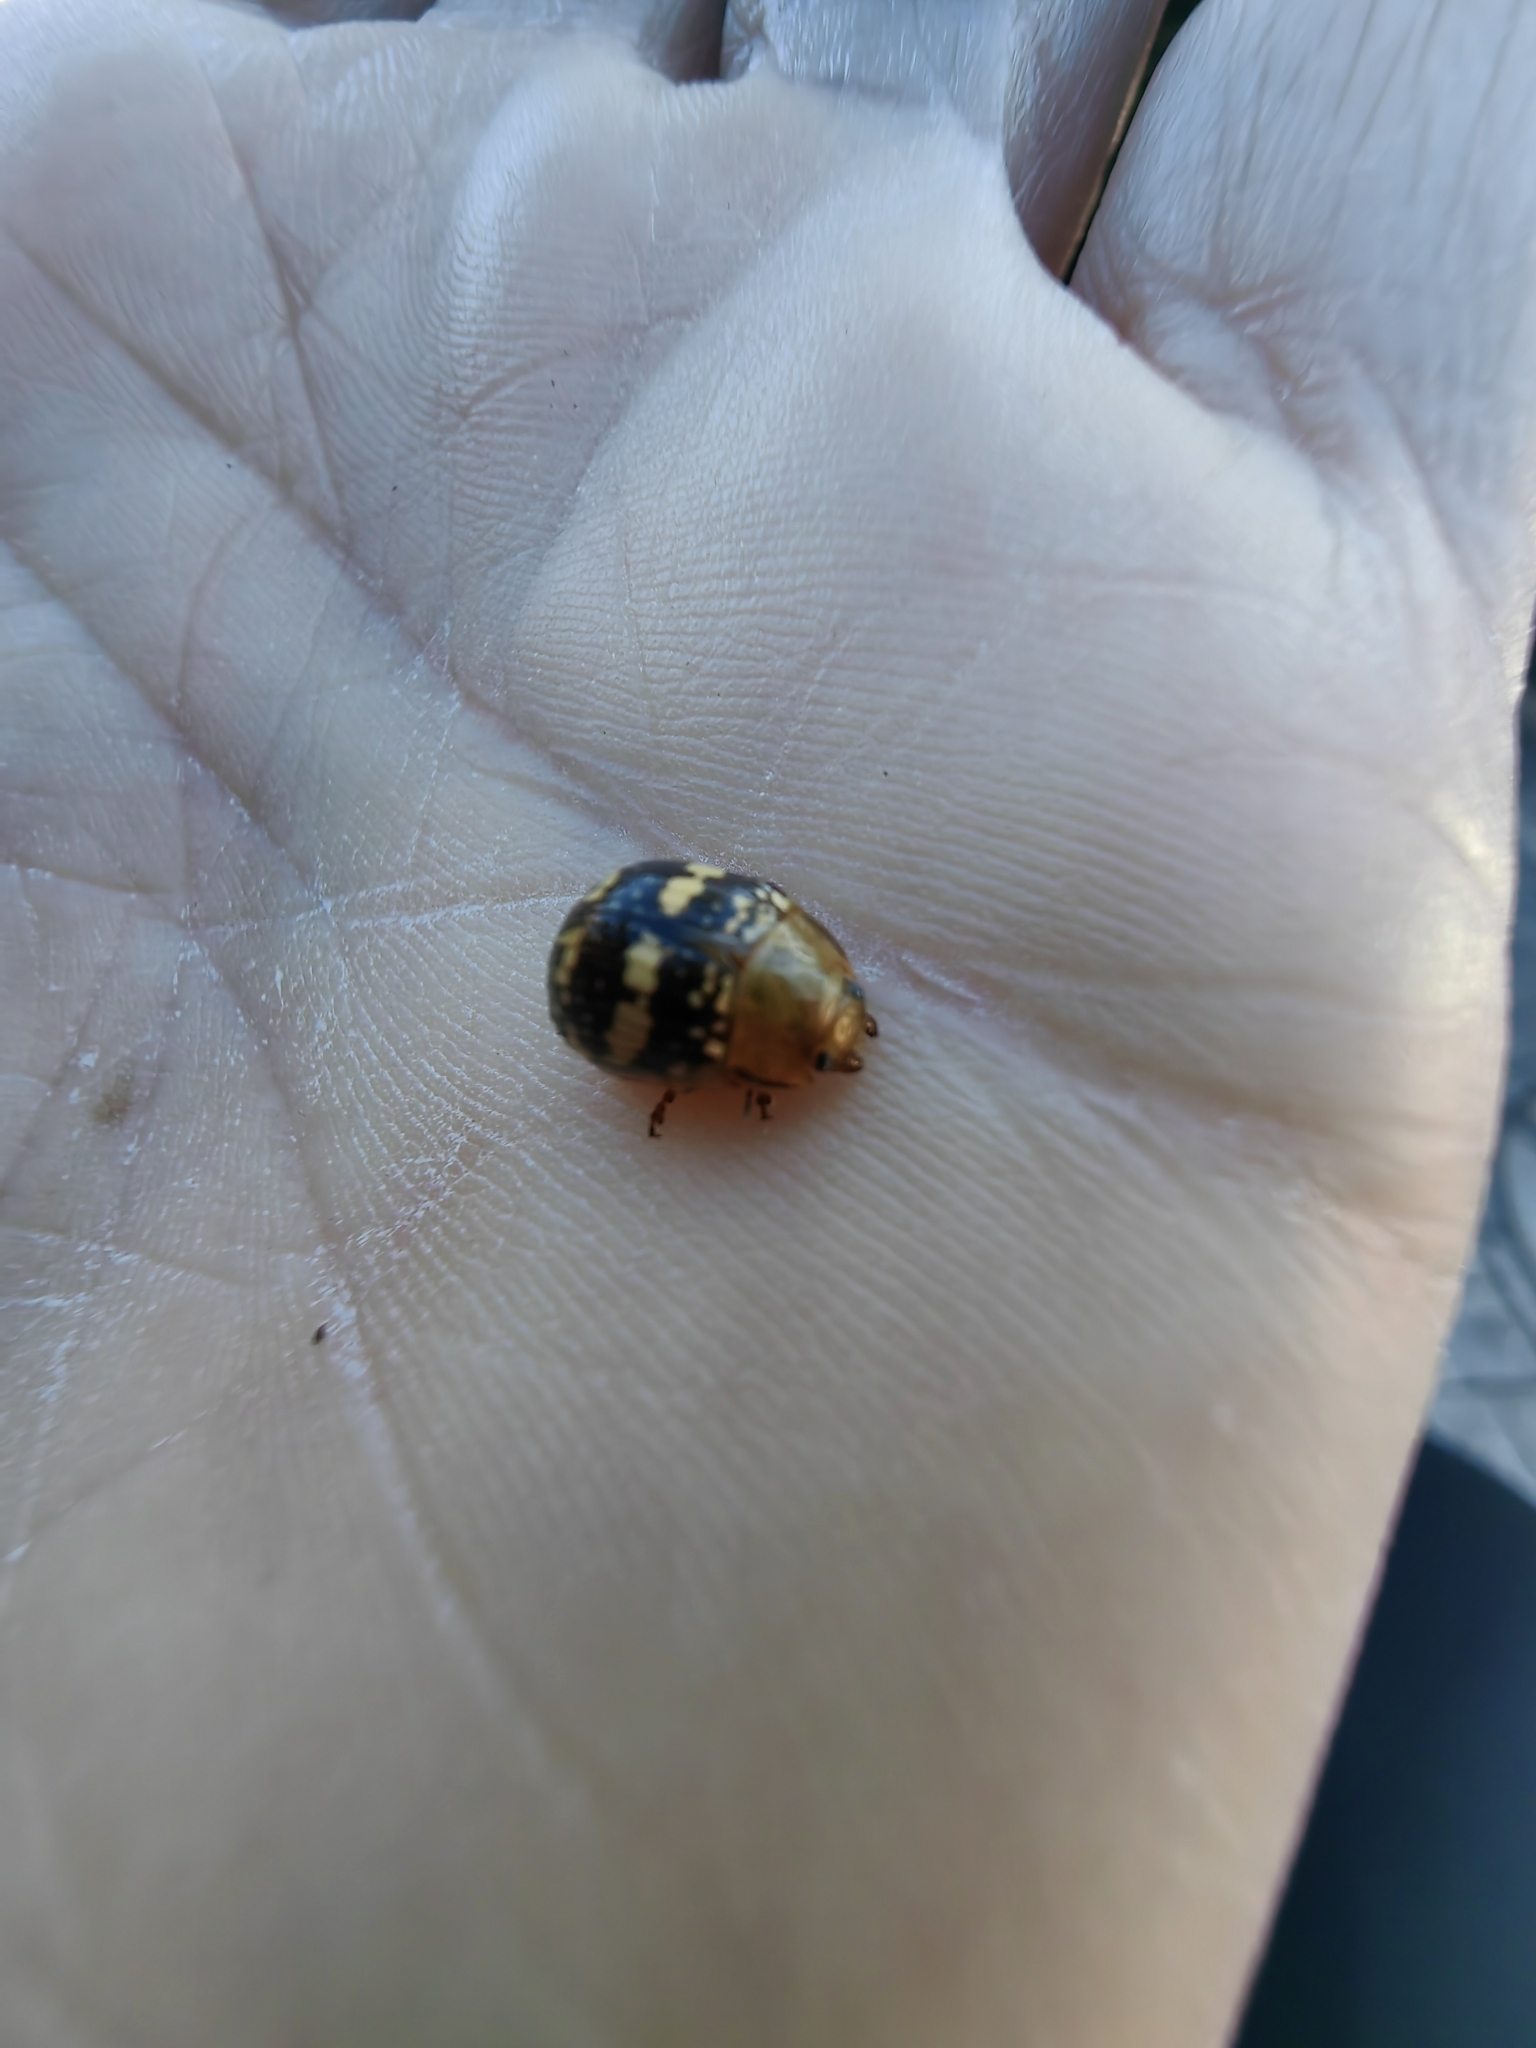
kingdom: Animalia
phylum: Arthropoda
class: Insecta
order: Coleoptera
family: Chrysomelidae
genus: Paropsis
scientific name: Paropsis
